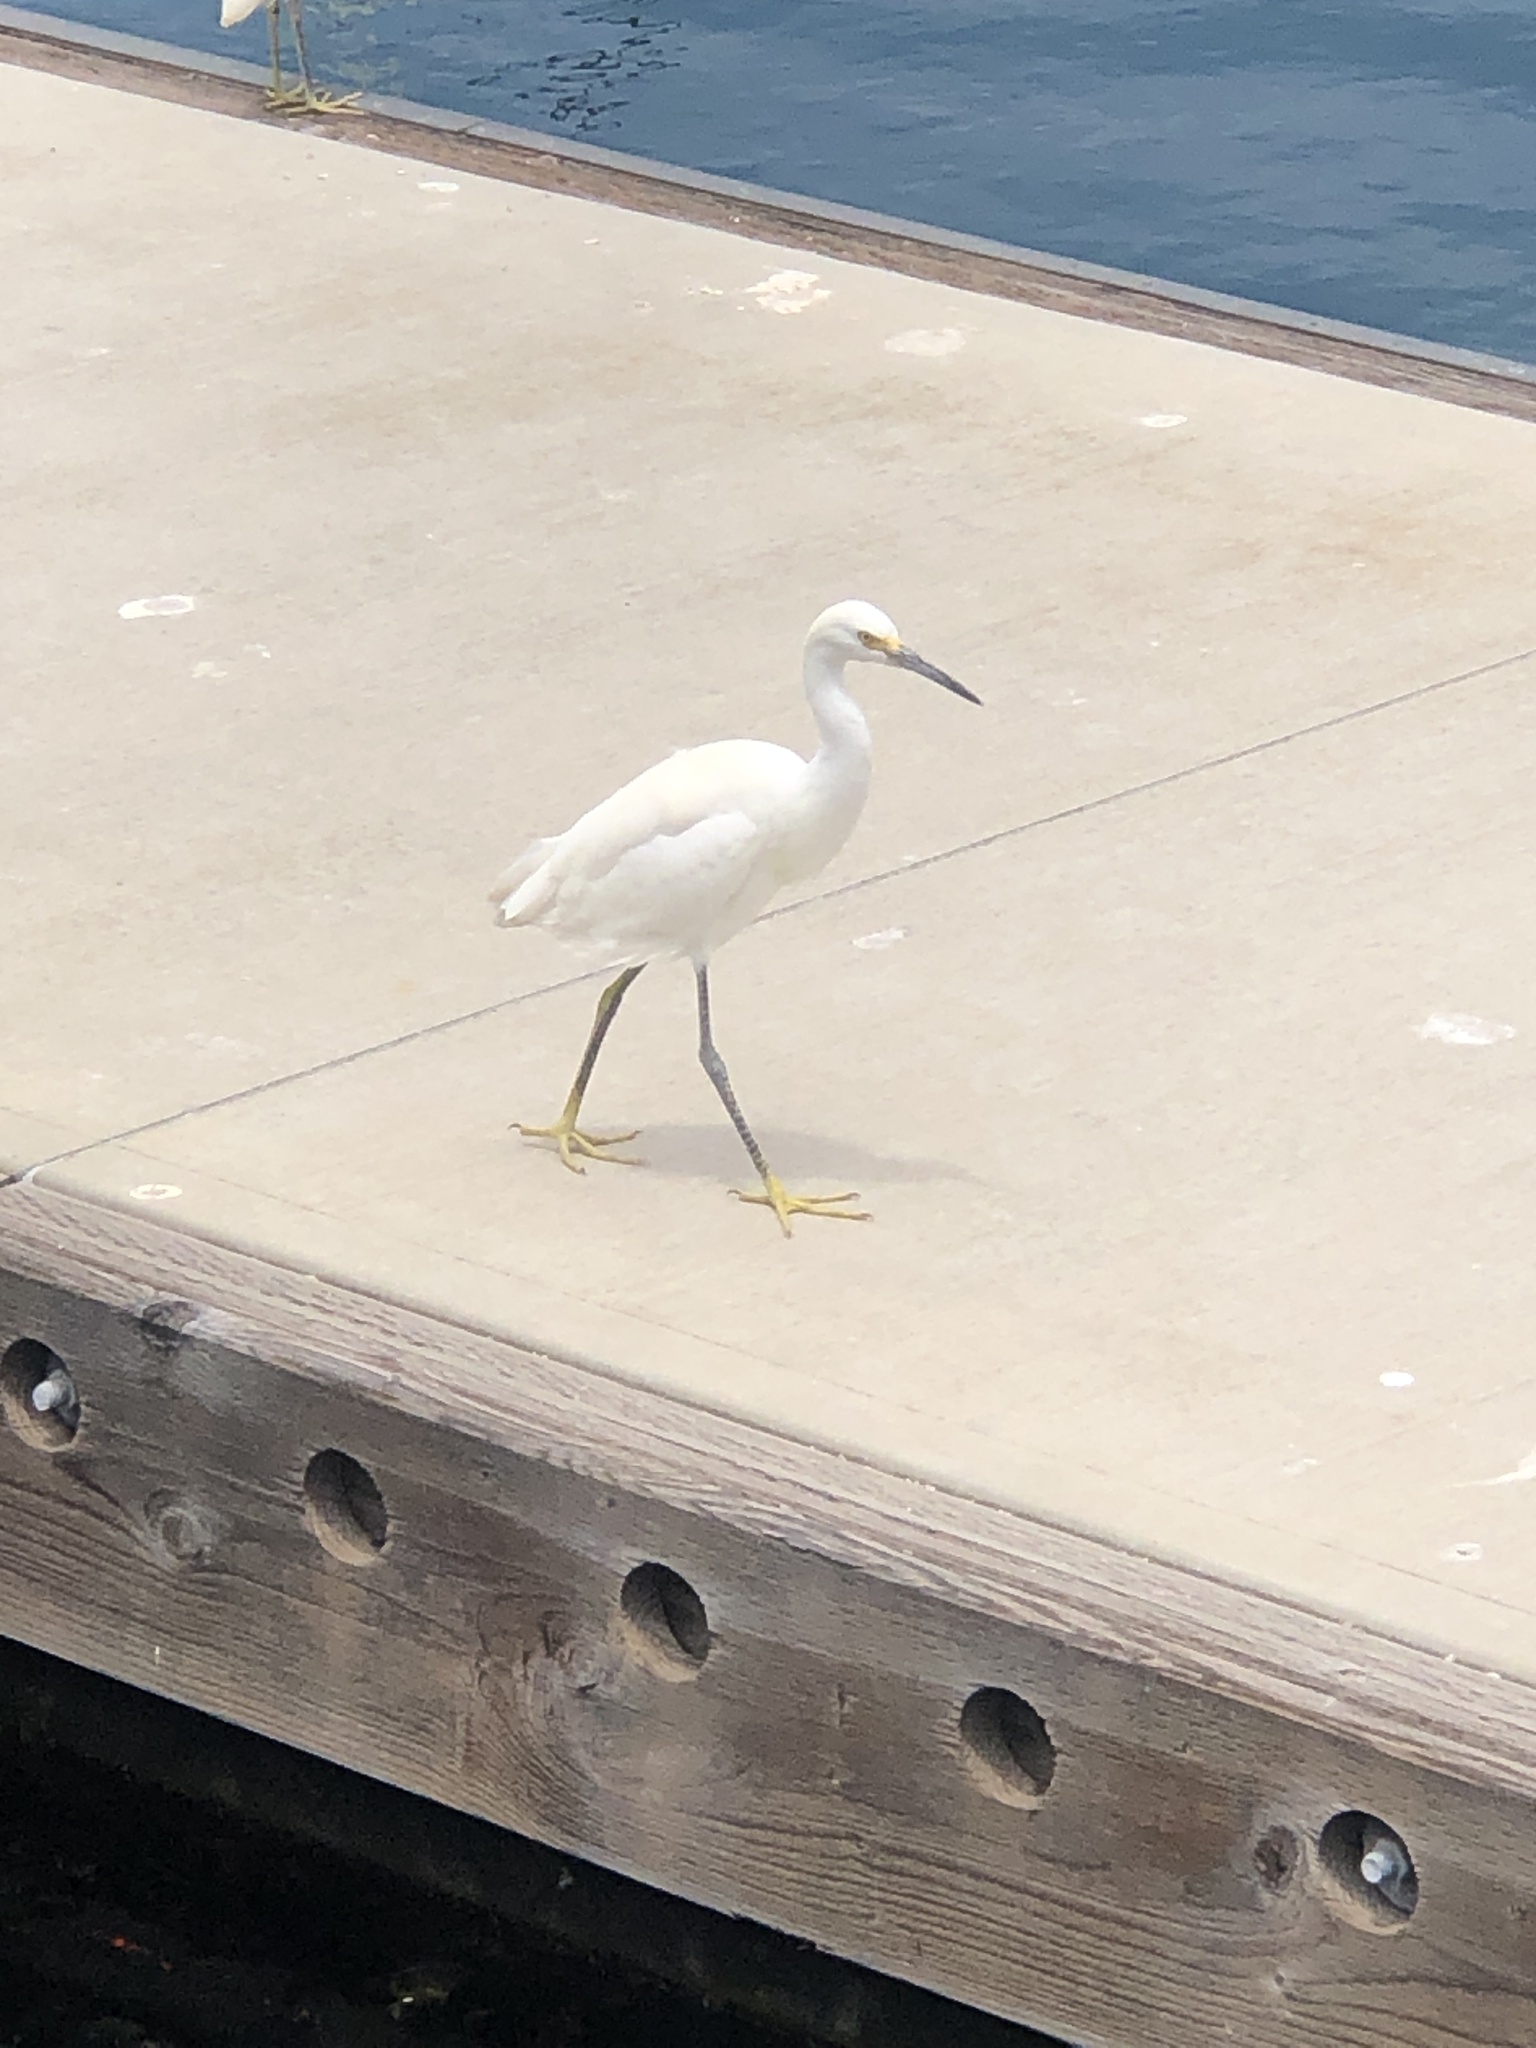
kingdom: Animalia
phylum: Chordata
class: Aves
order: Pelecaniformes
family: Ardeidae
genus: Egretta
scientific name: Egretta thula
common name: Snowy egret
